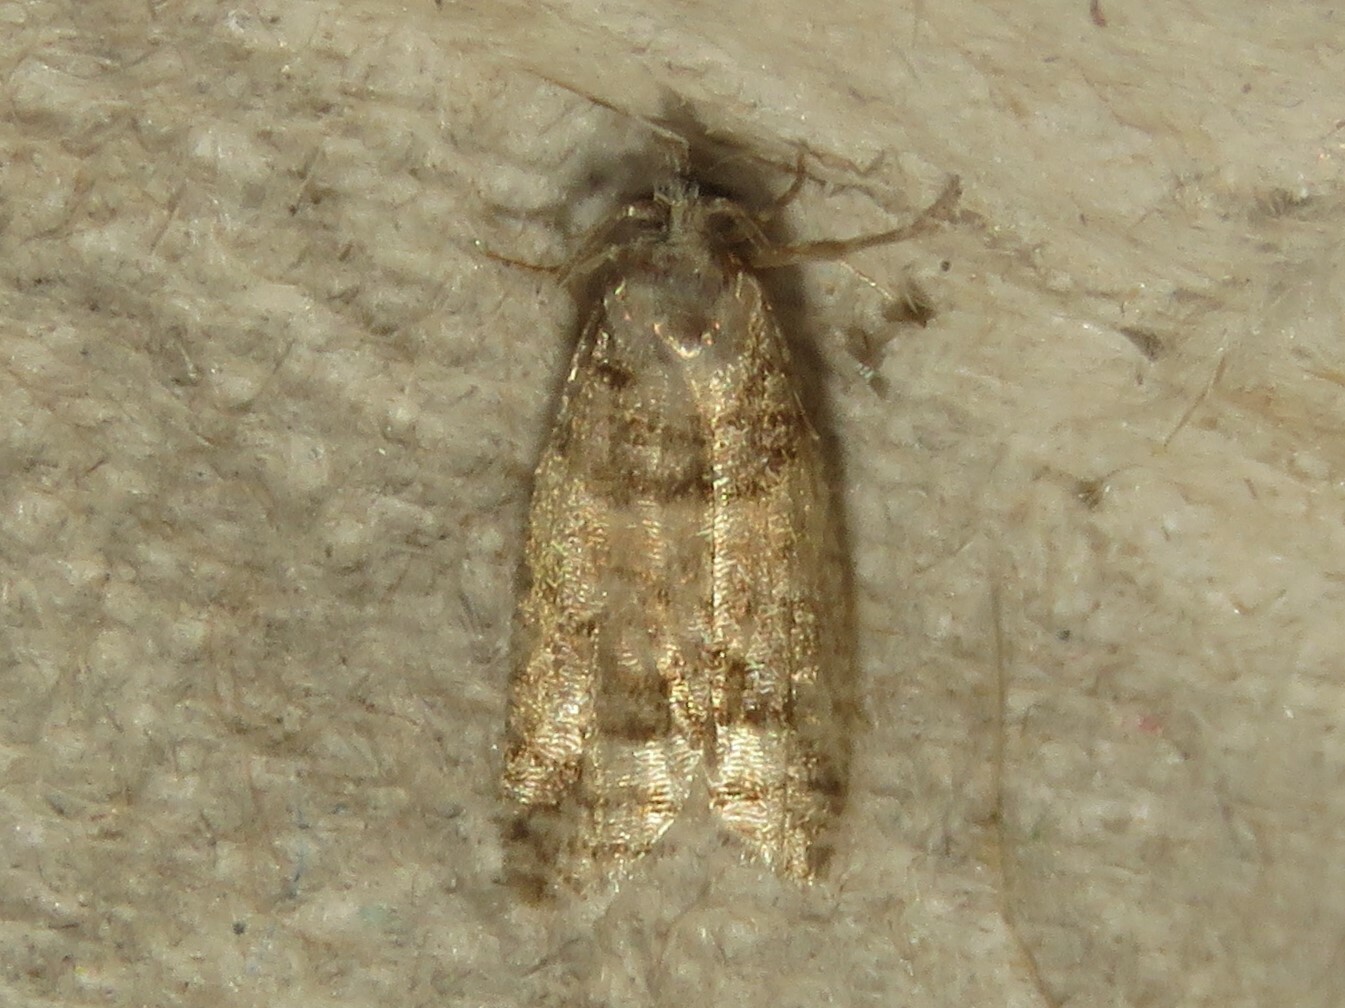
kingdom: Animalia
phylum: Arthropoda
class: Insecta
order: Lepidoptera
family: Tortricidae
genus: Epinotia
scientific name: Epinotia radicana
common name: Red-striped needleworm moth
